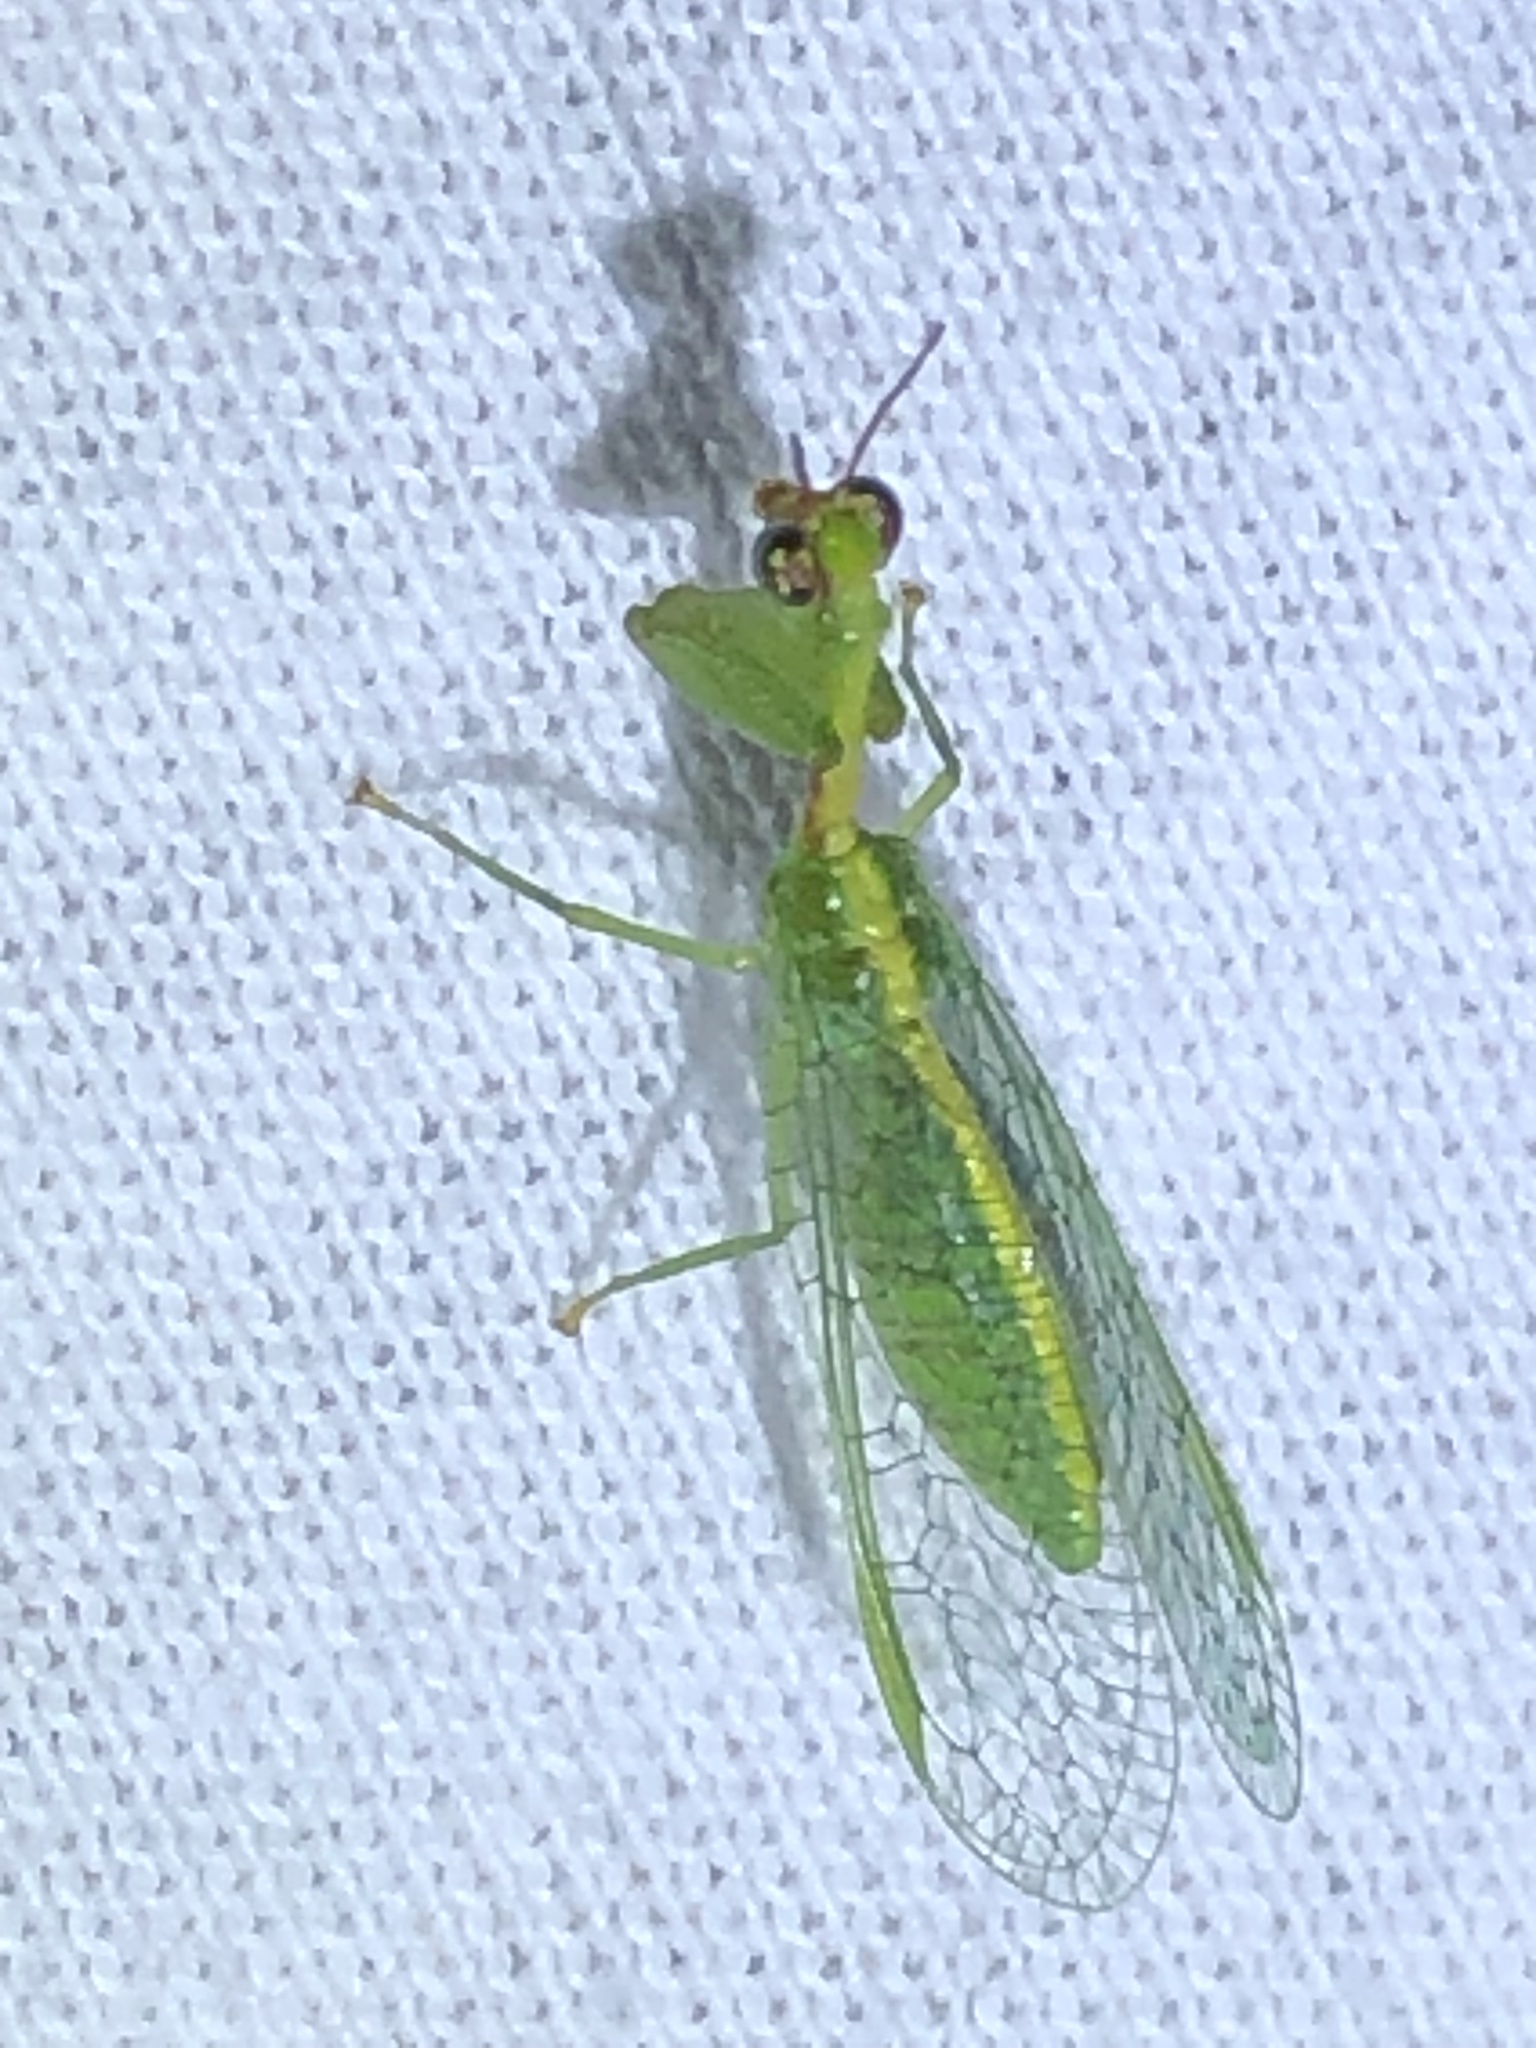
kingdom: Animalia
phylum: Arthropoda
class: Insecta
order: Neuroptera
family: Mantispidae
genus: Zeugomantispa
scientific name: Zeugomantispa minuta
